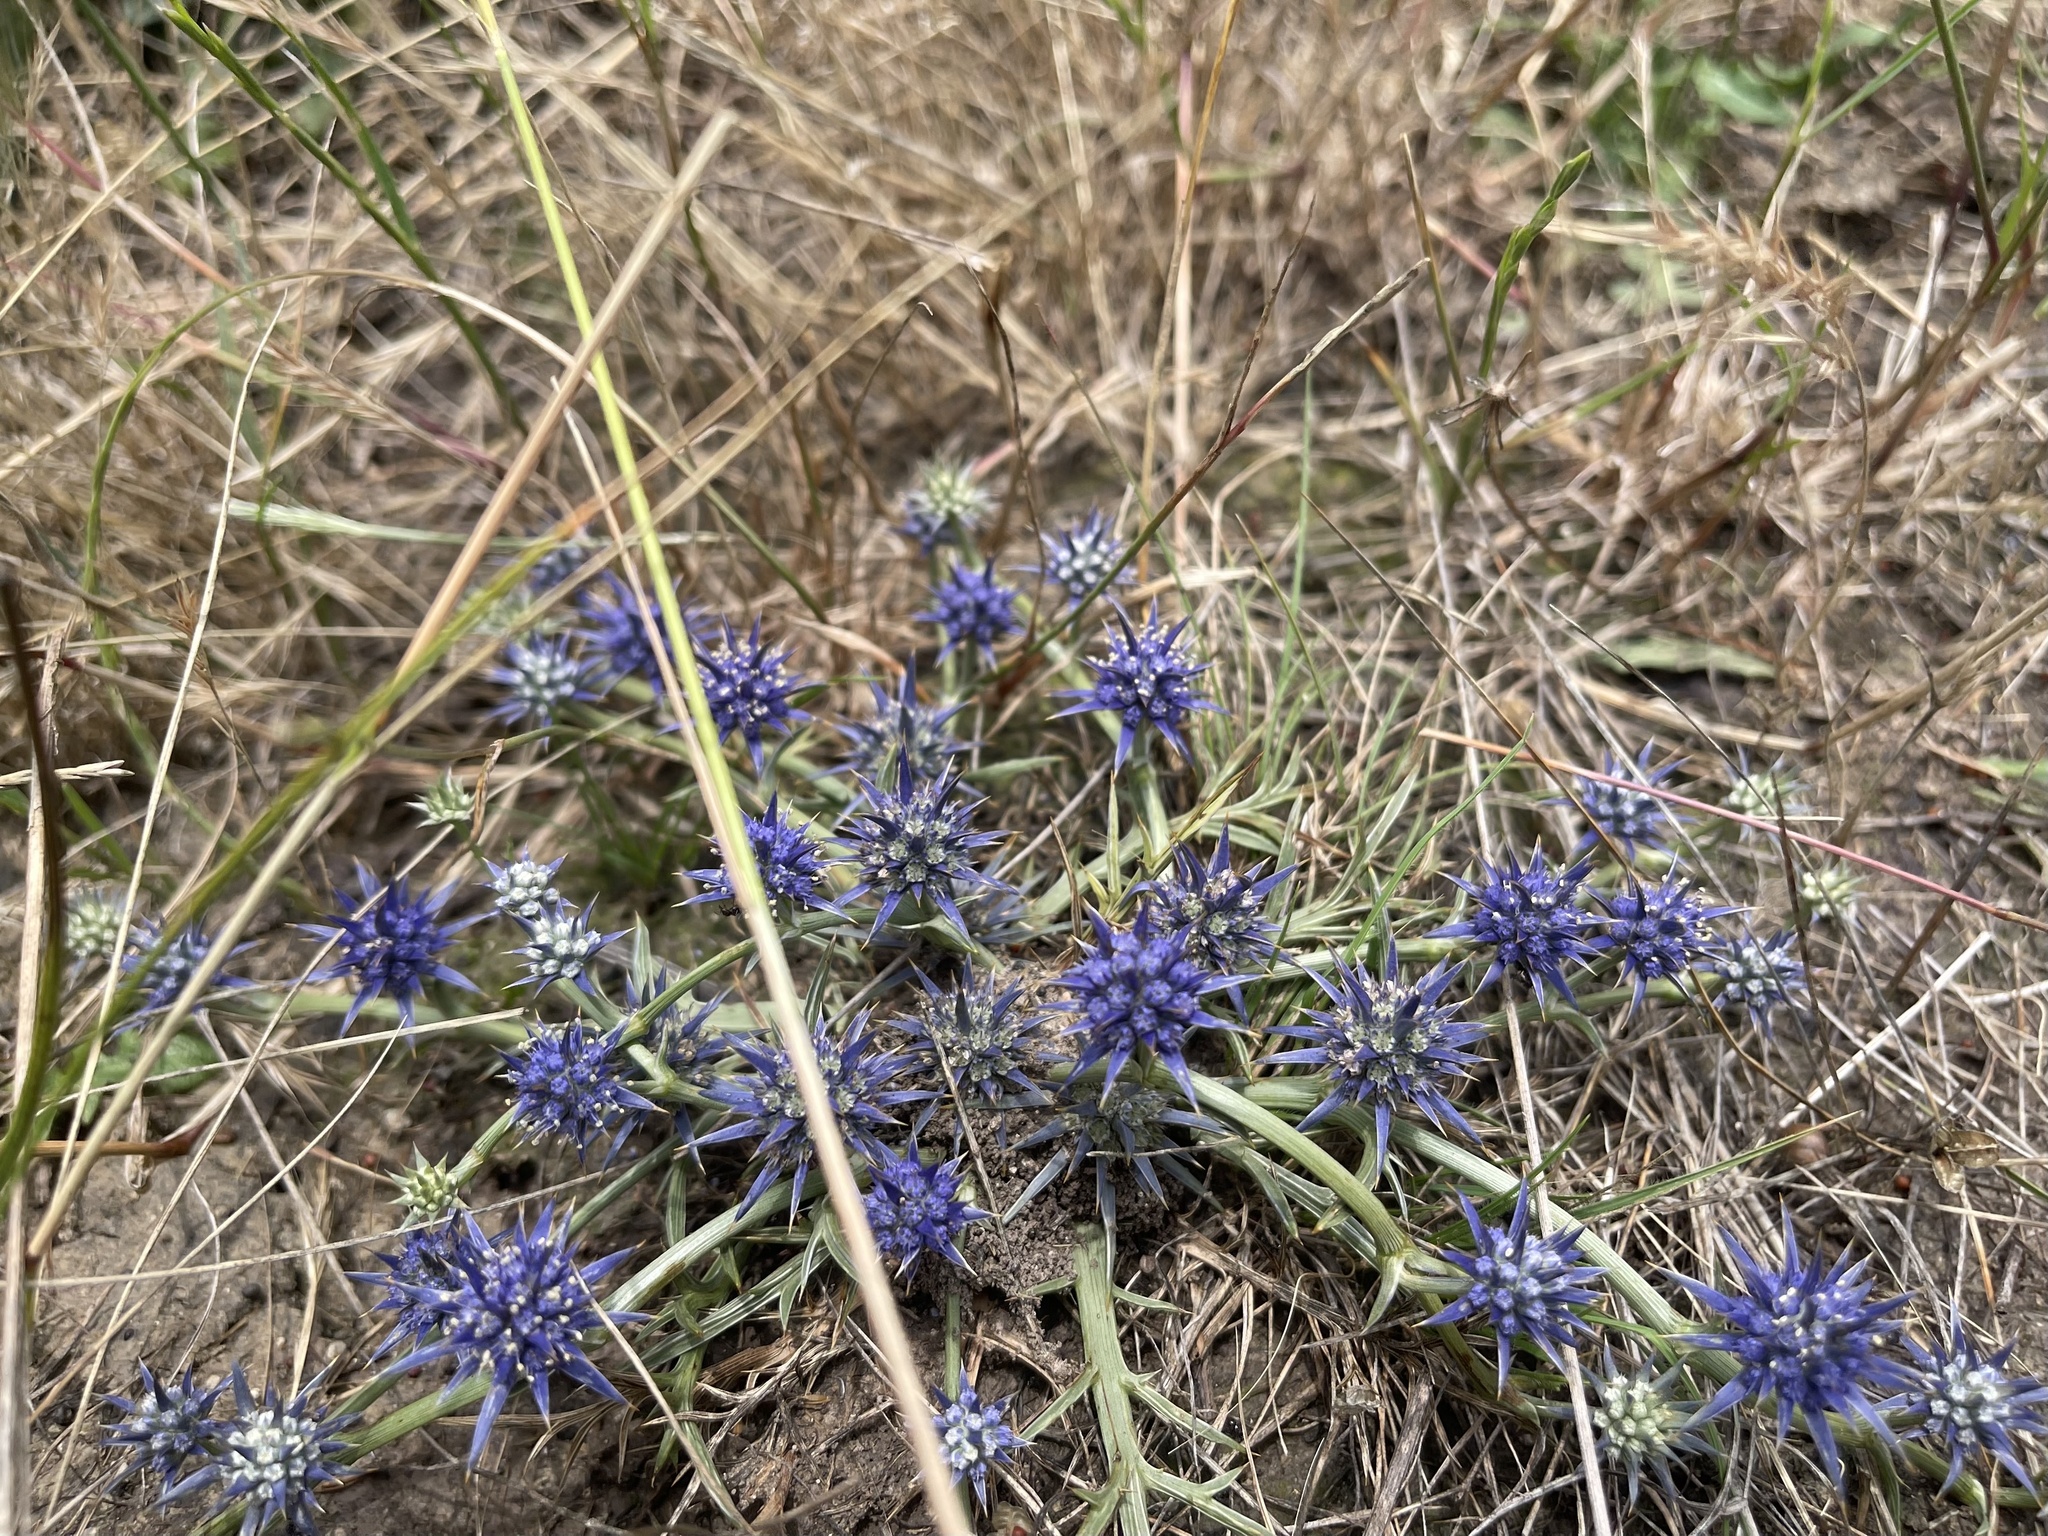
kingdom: Plantae
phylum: Tracheophyta
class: Magnoliopsida
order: Apiales
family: Apiaceae
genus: Eryngium
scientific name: Eryngium ovinum
